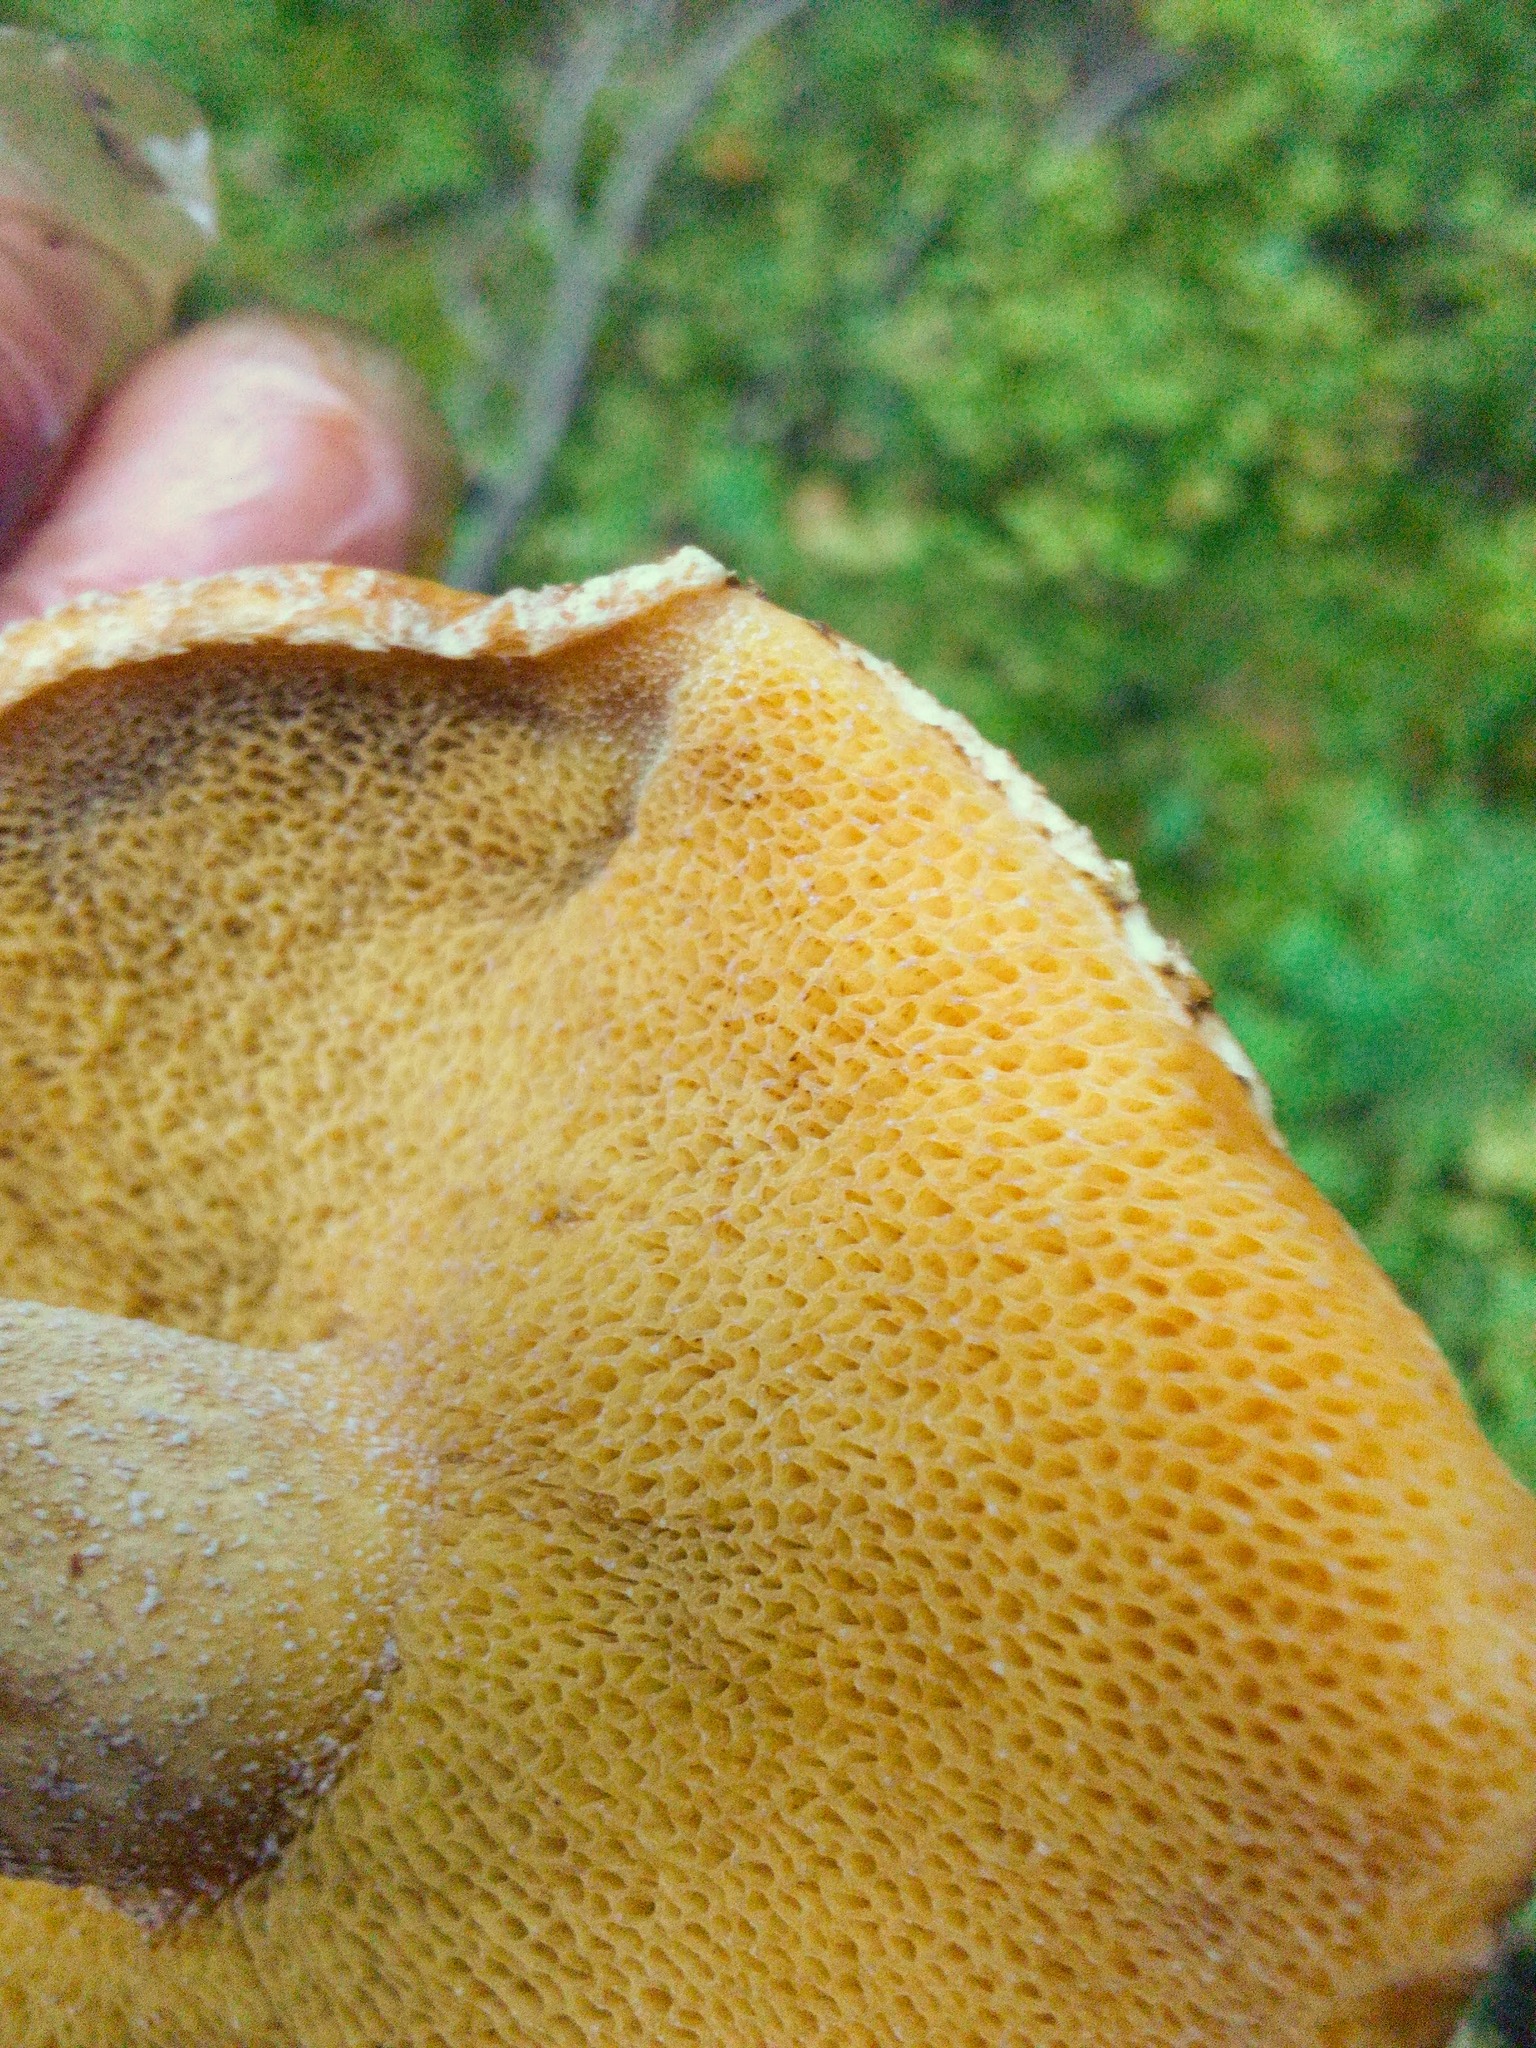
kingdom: Fungi
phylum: Basidiomycota
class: Agaricomycetes
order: Boletales
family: Suillaceae
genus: Suillus
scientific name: Suillus punctipes
